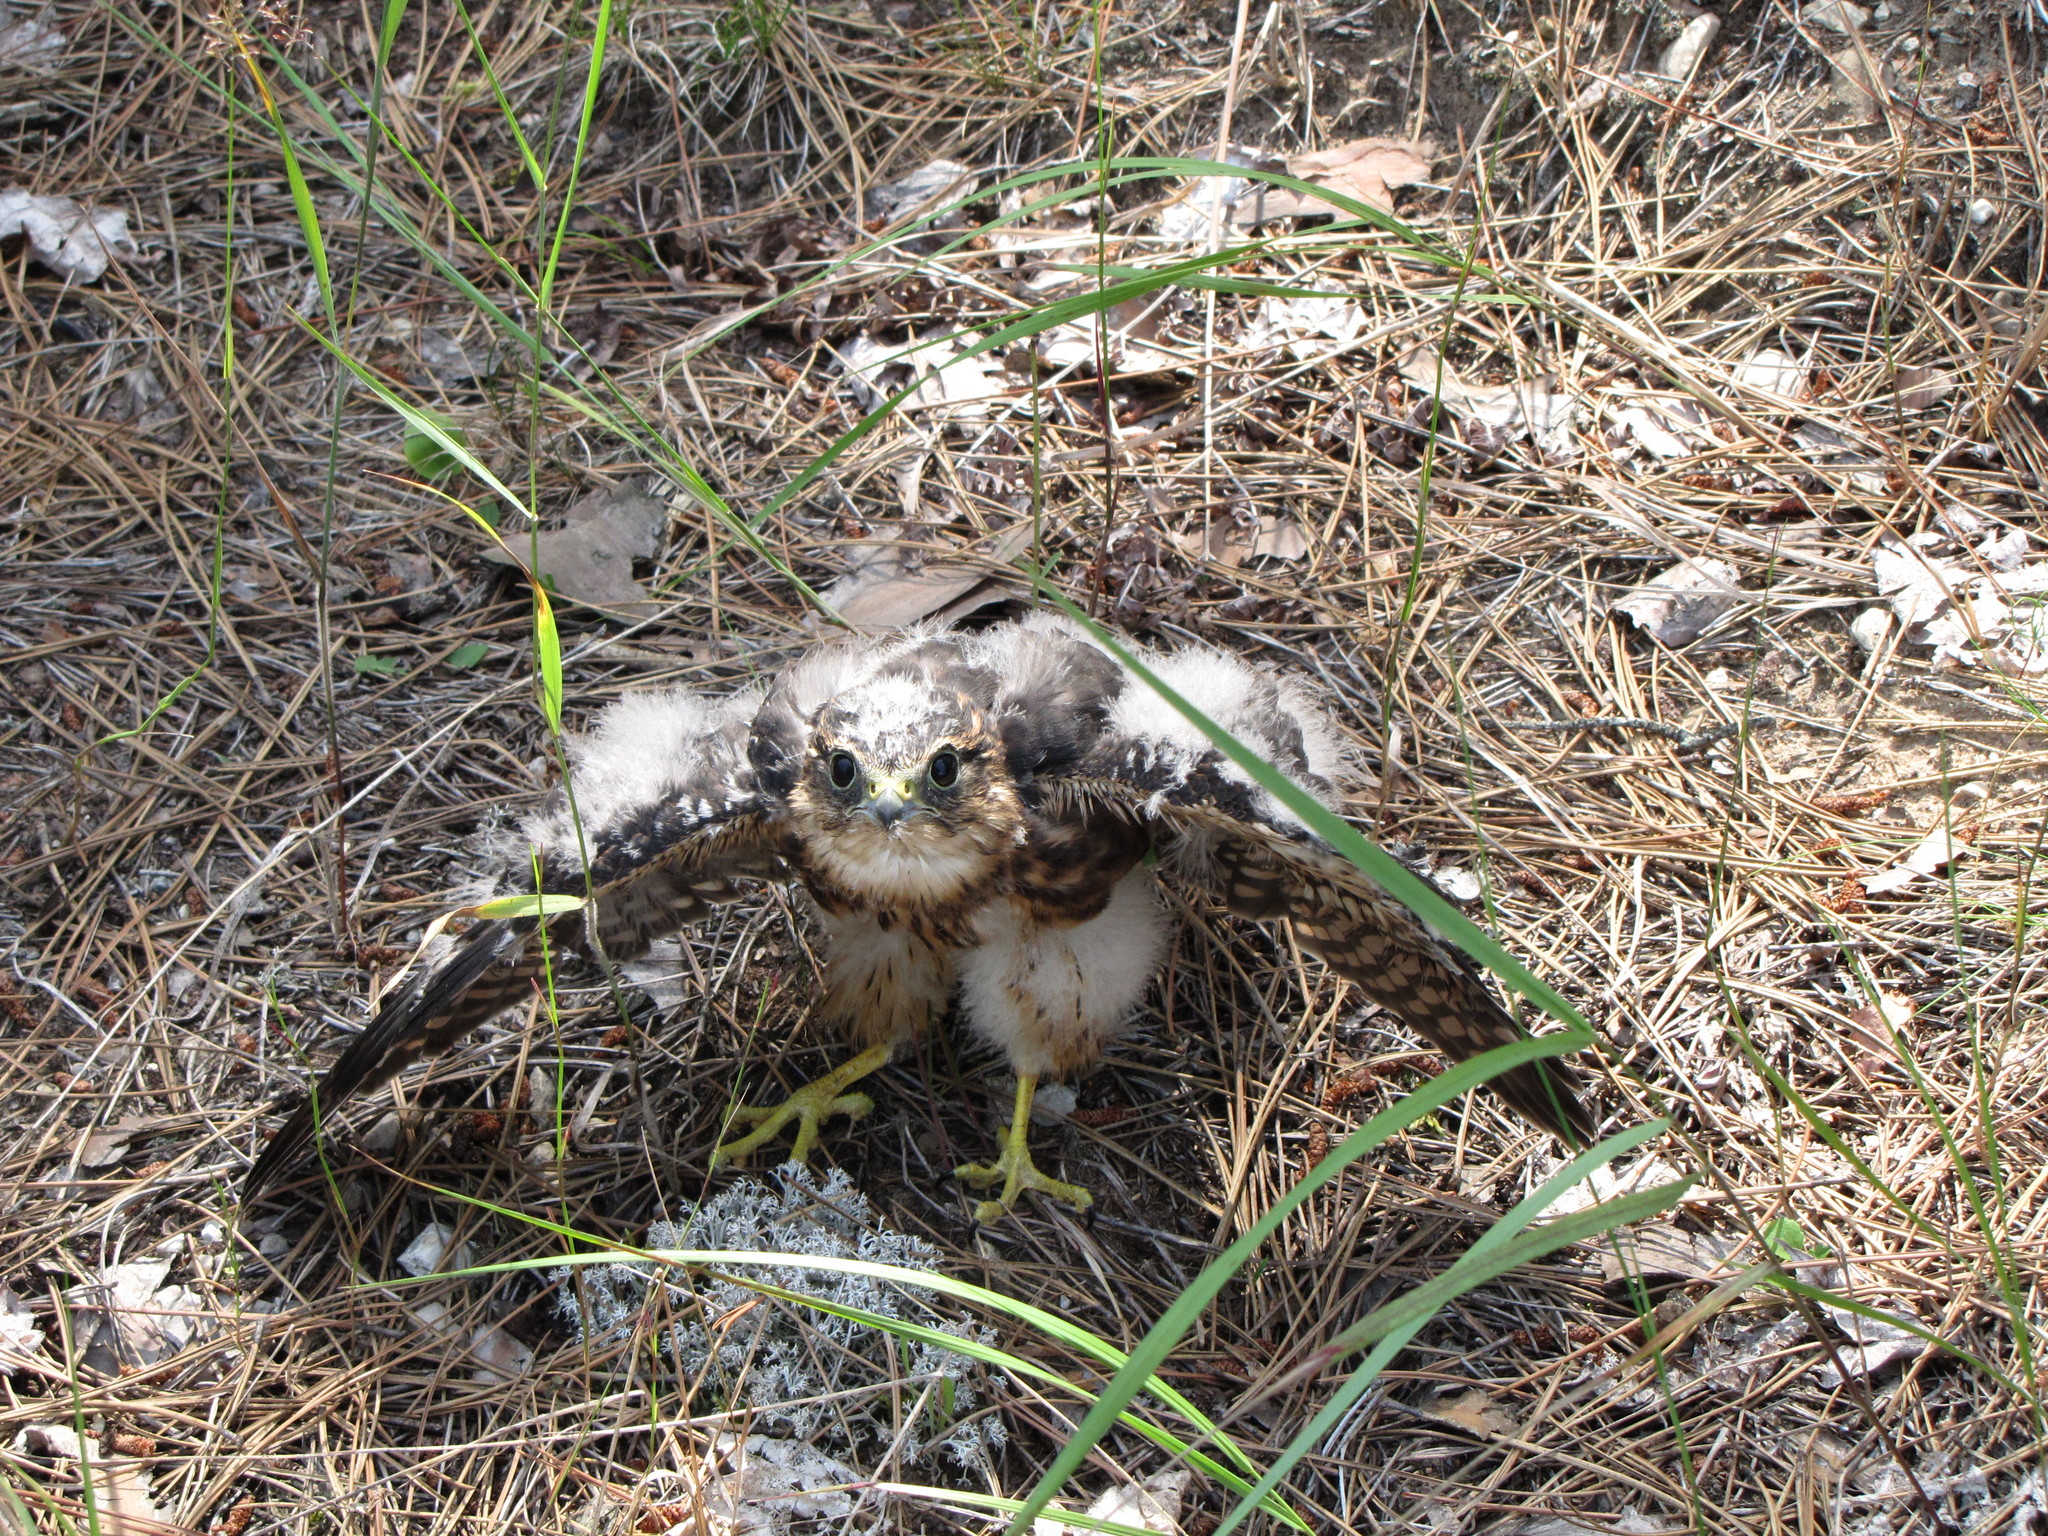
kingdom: Animalia
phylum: Chordata
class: Aves
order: Falconiformes
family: Falconidae
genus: Falco
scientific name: Falco columbarius
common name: Merlin
